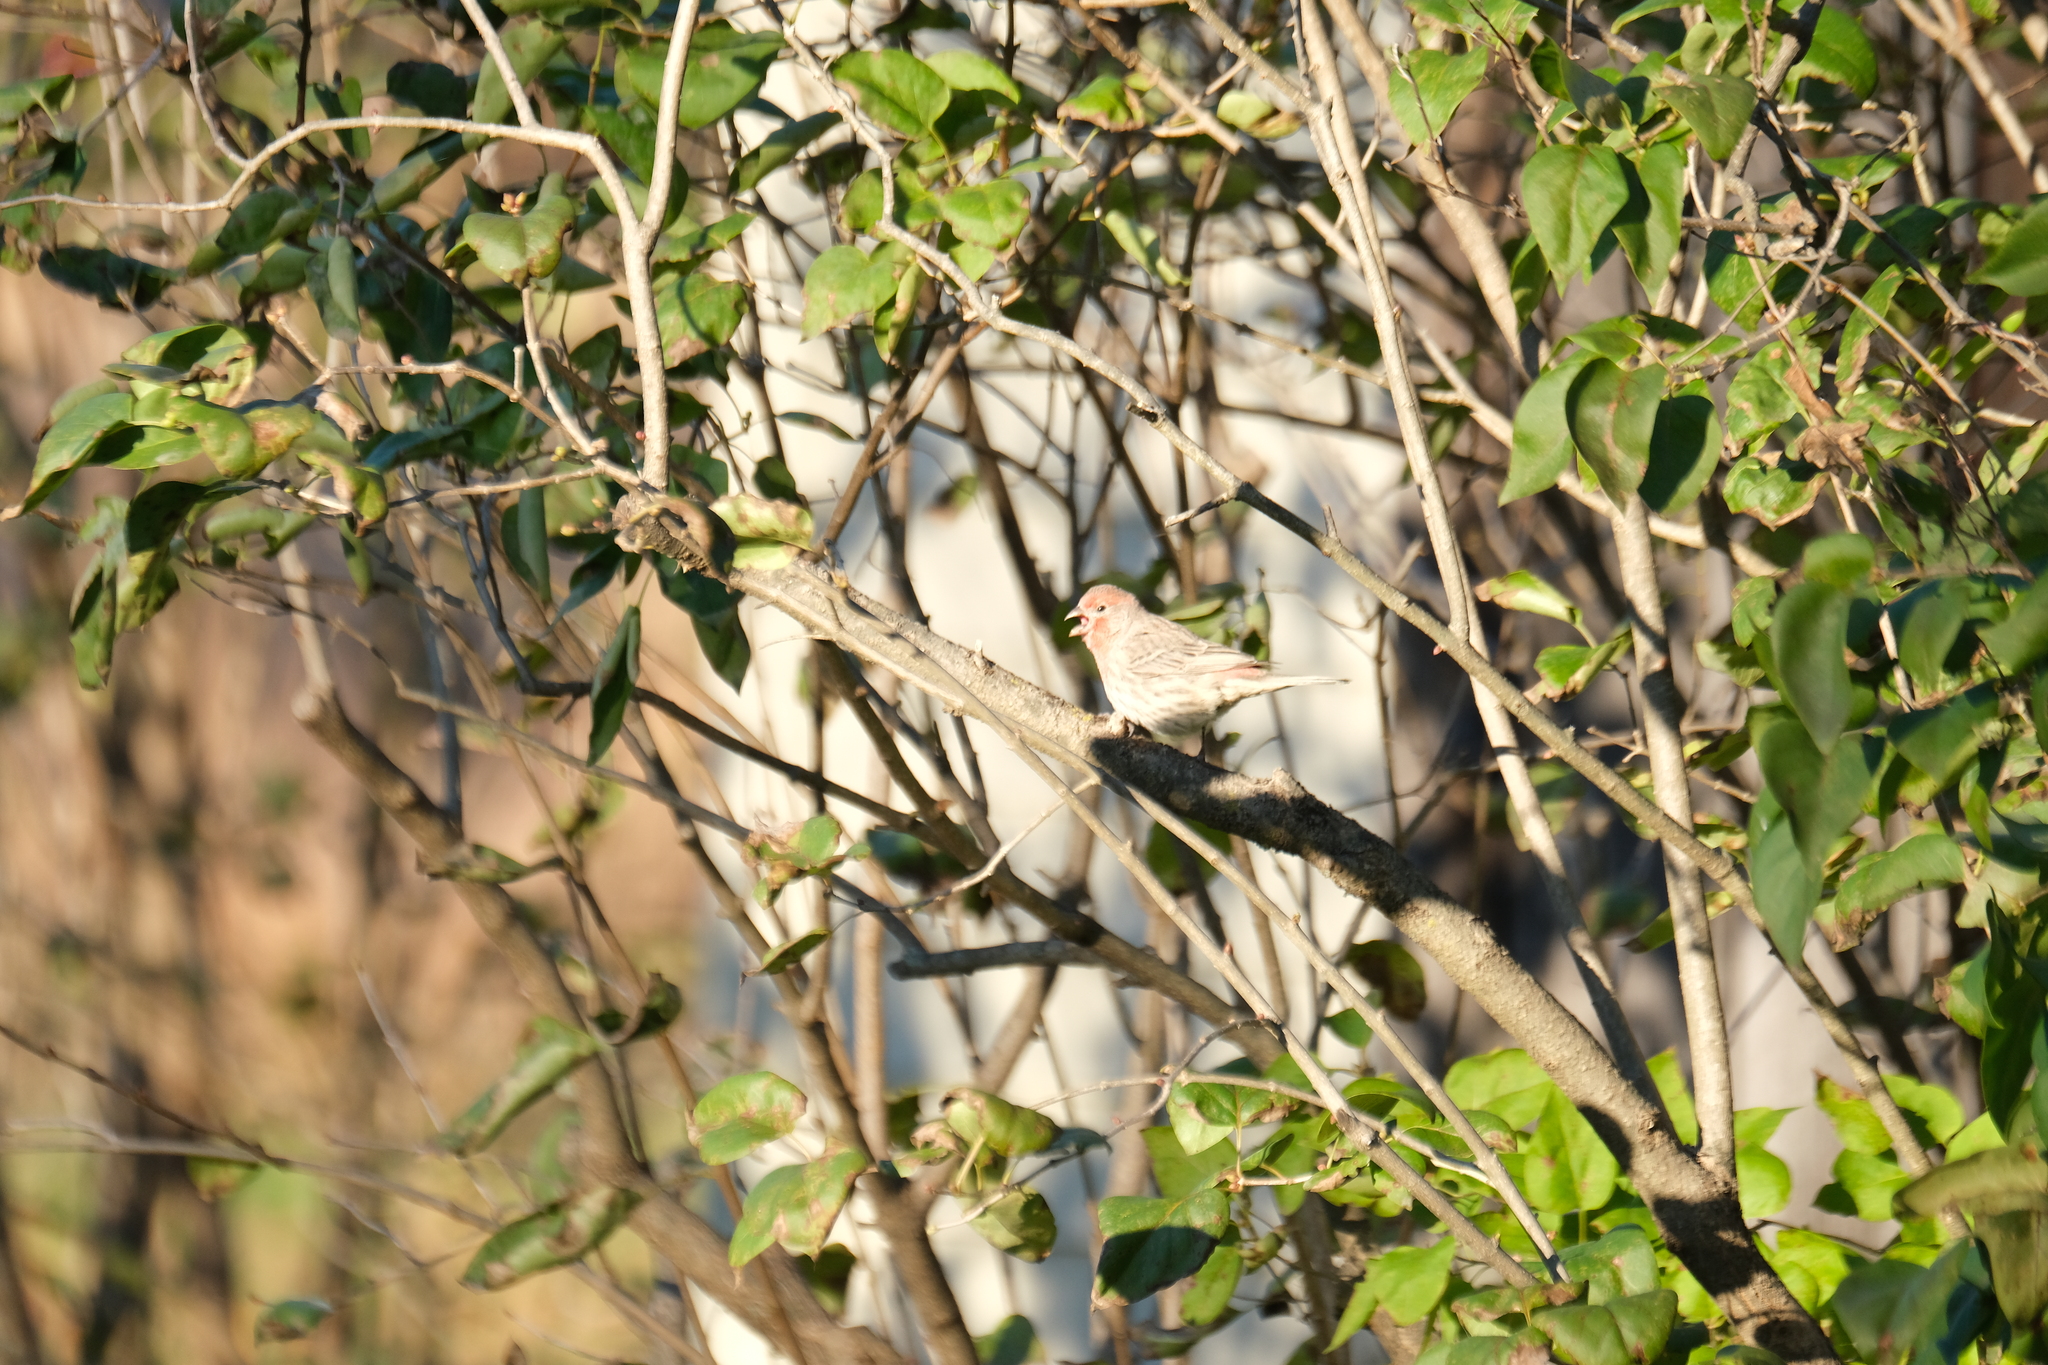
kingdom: Animalia
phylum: Chordata
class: Aves
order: Passeriformes
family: Fringillidae
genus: Haemorhous
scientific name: Haemorhous mexicanus
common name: House finch
